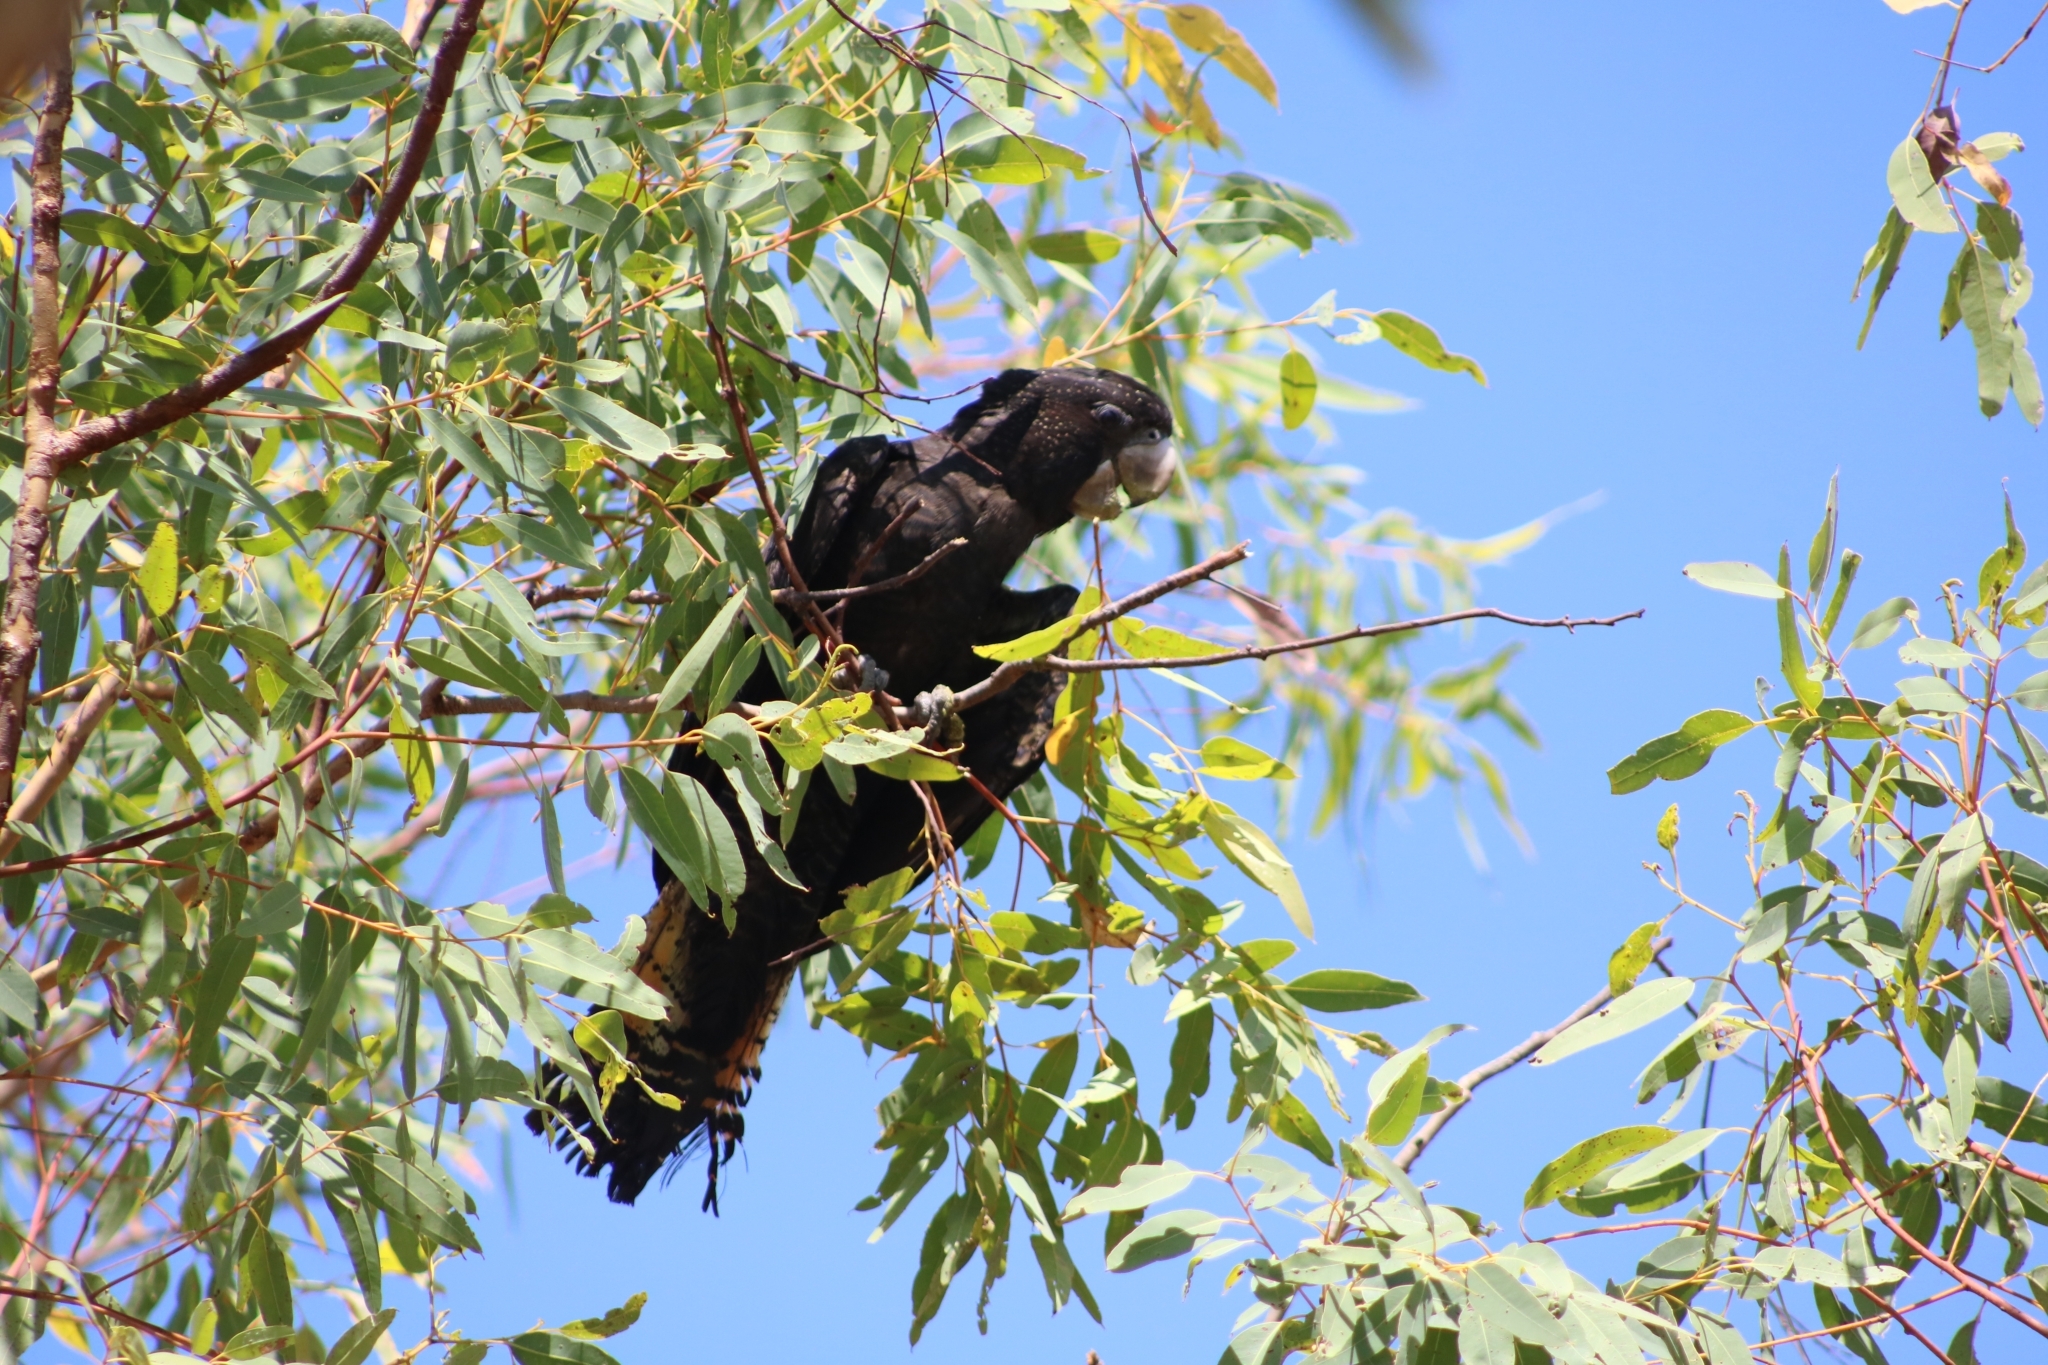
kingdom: Animalia
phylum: Chordata
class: Aves
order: Psittaciformes
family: Psittacidae
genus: Calyptorhynchus
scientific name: Calyptorhynchus banksii
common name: Red-tailed black cockatoo
